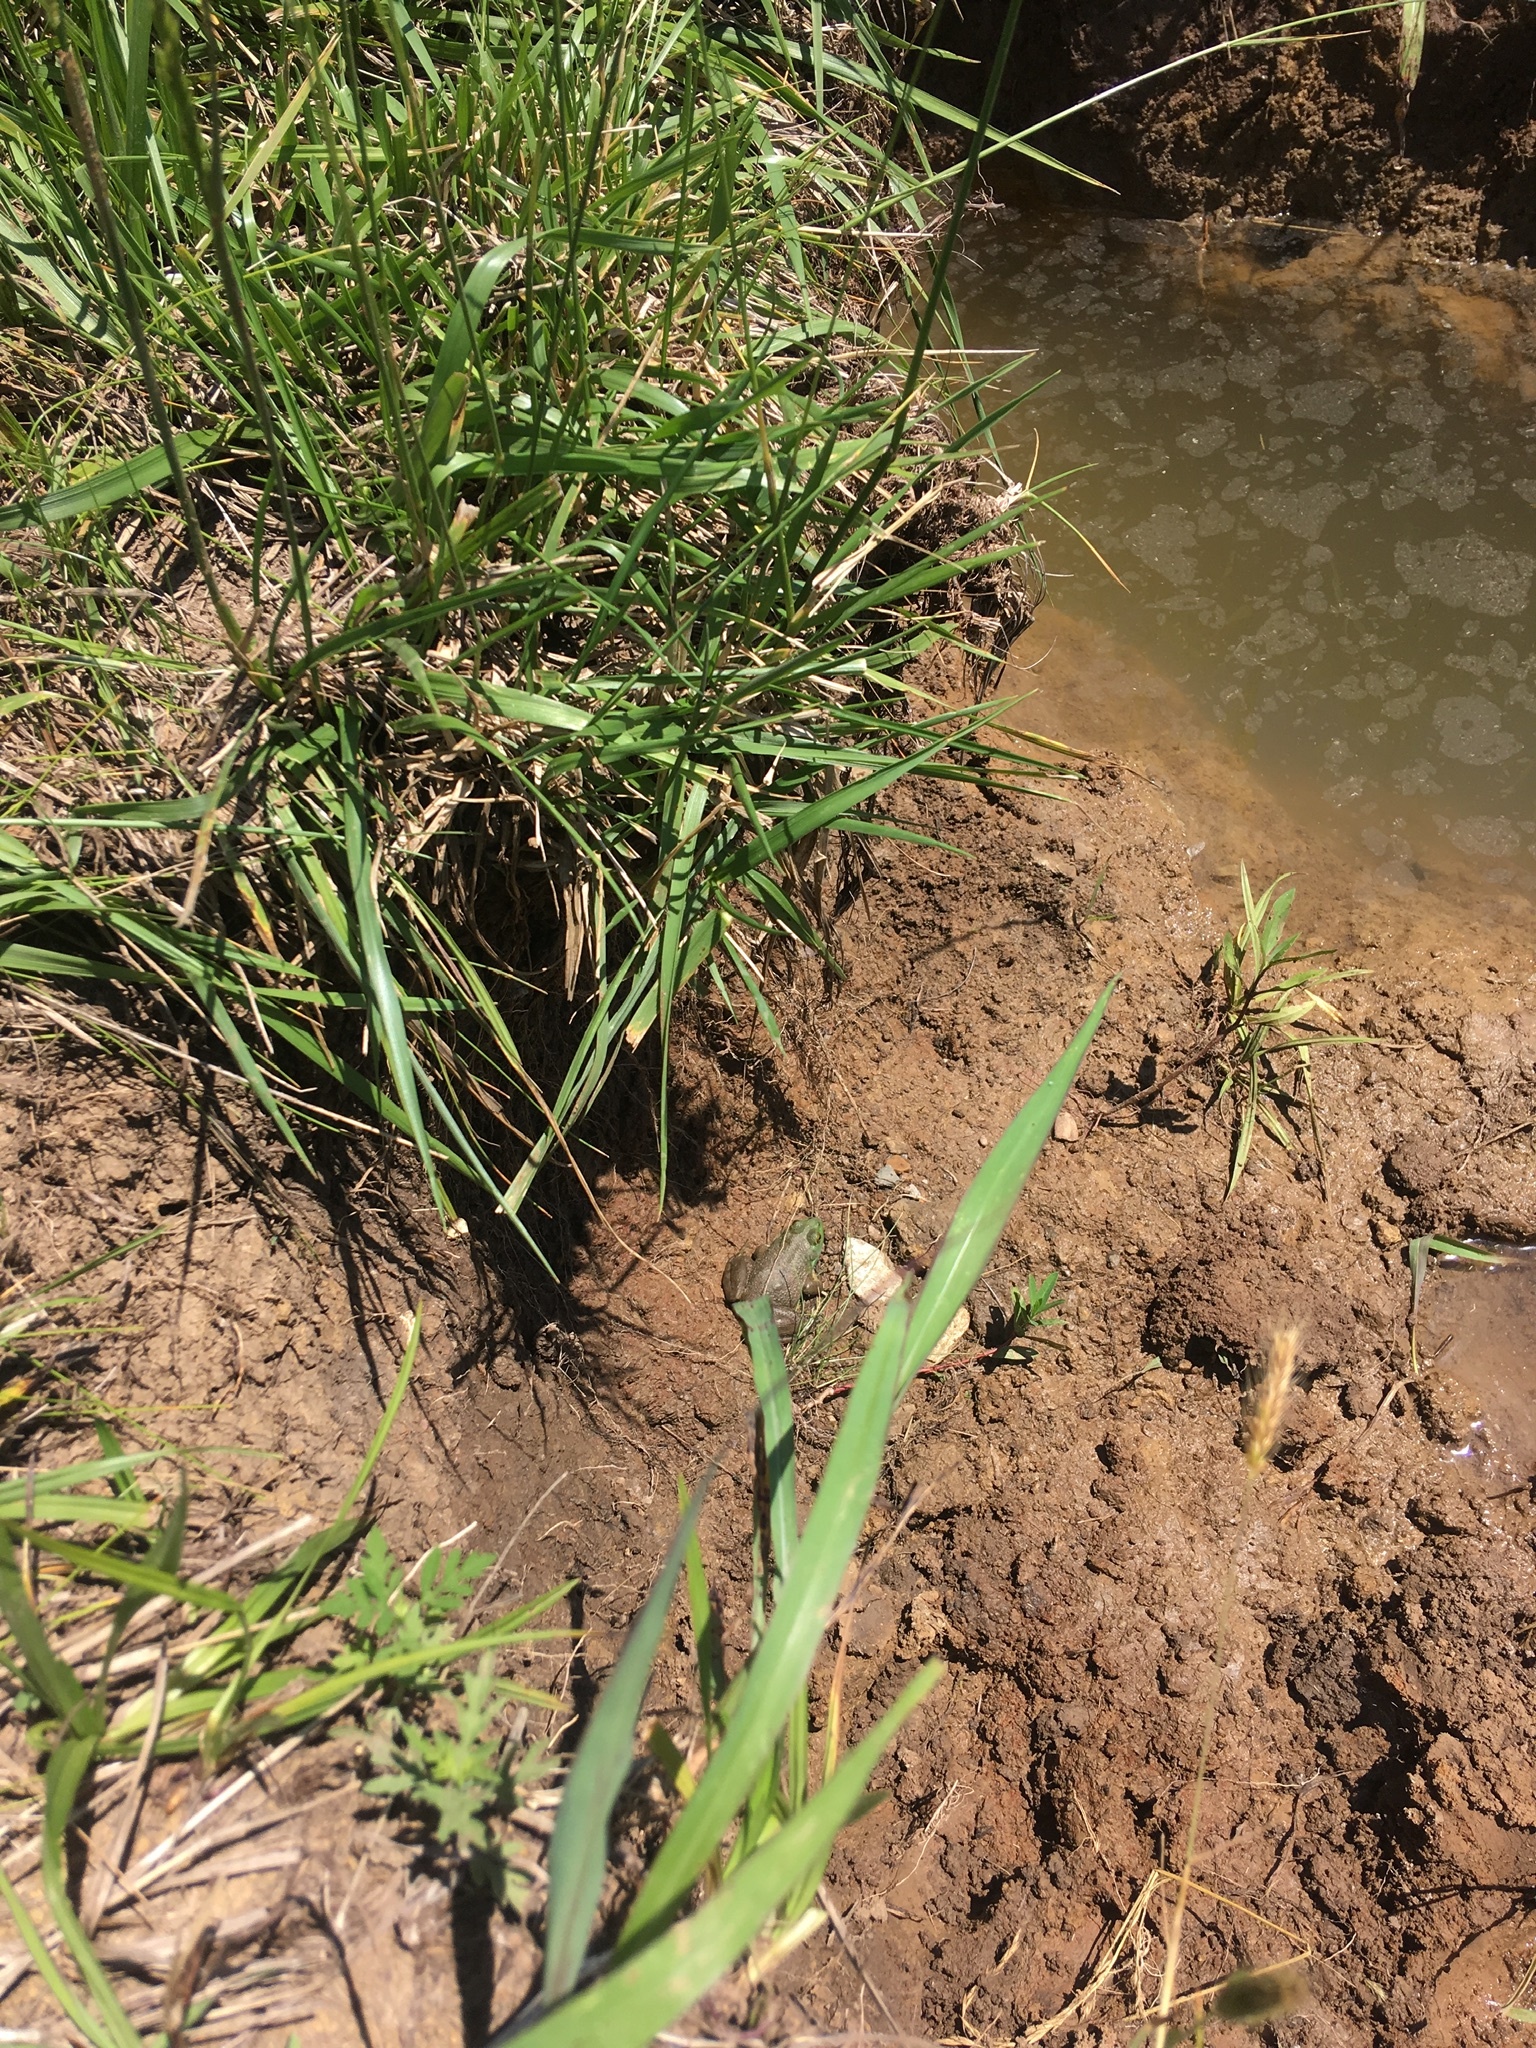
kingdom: Animalia
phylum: Chordata
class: Amphibia
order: Anura
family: Ranidae
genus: Lithobates
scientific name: Lithobates catesbeianus
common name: American bullfrog
